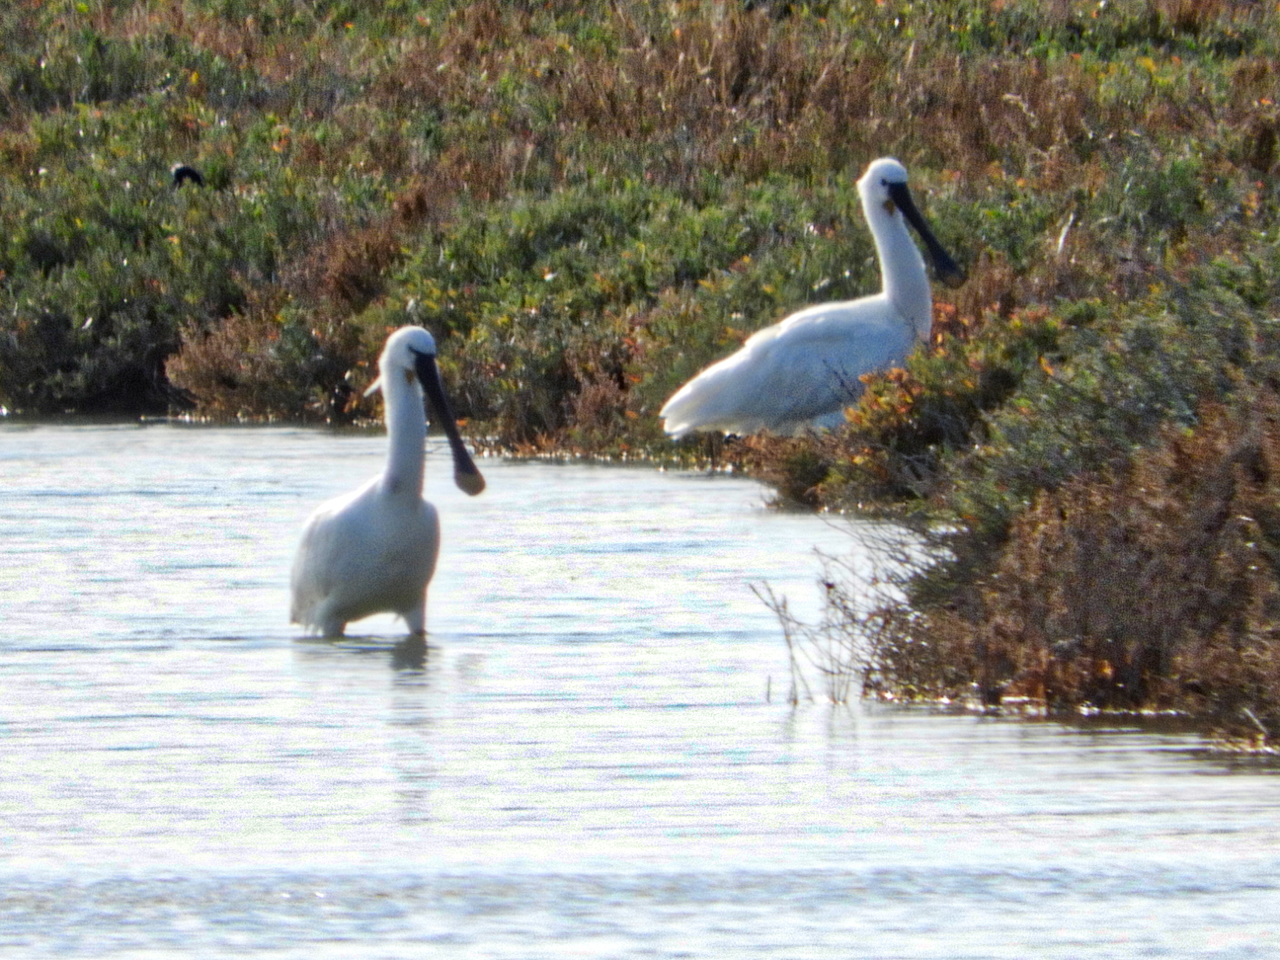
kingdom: Animalia
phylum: Chordata
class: Aves
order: Pelecaniformes
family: Threskiornithidae
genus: Platalea
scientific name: Platalea leucorodia
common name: Eurasian spoonbill
